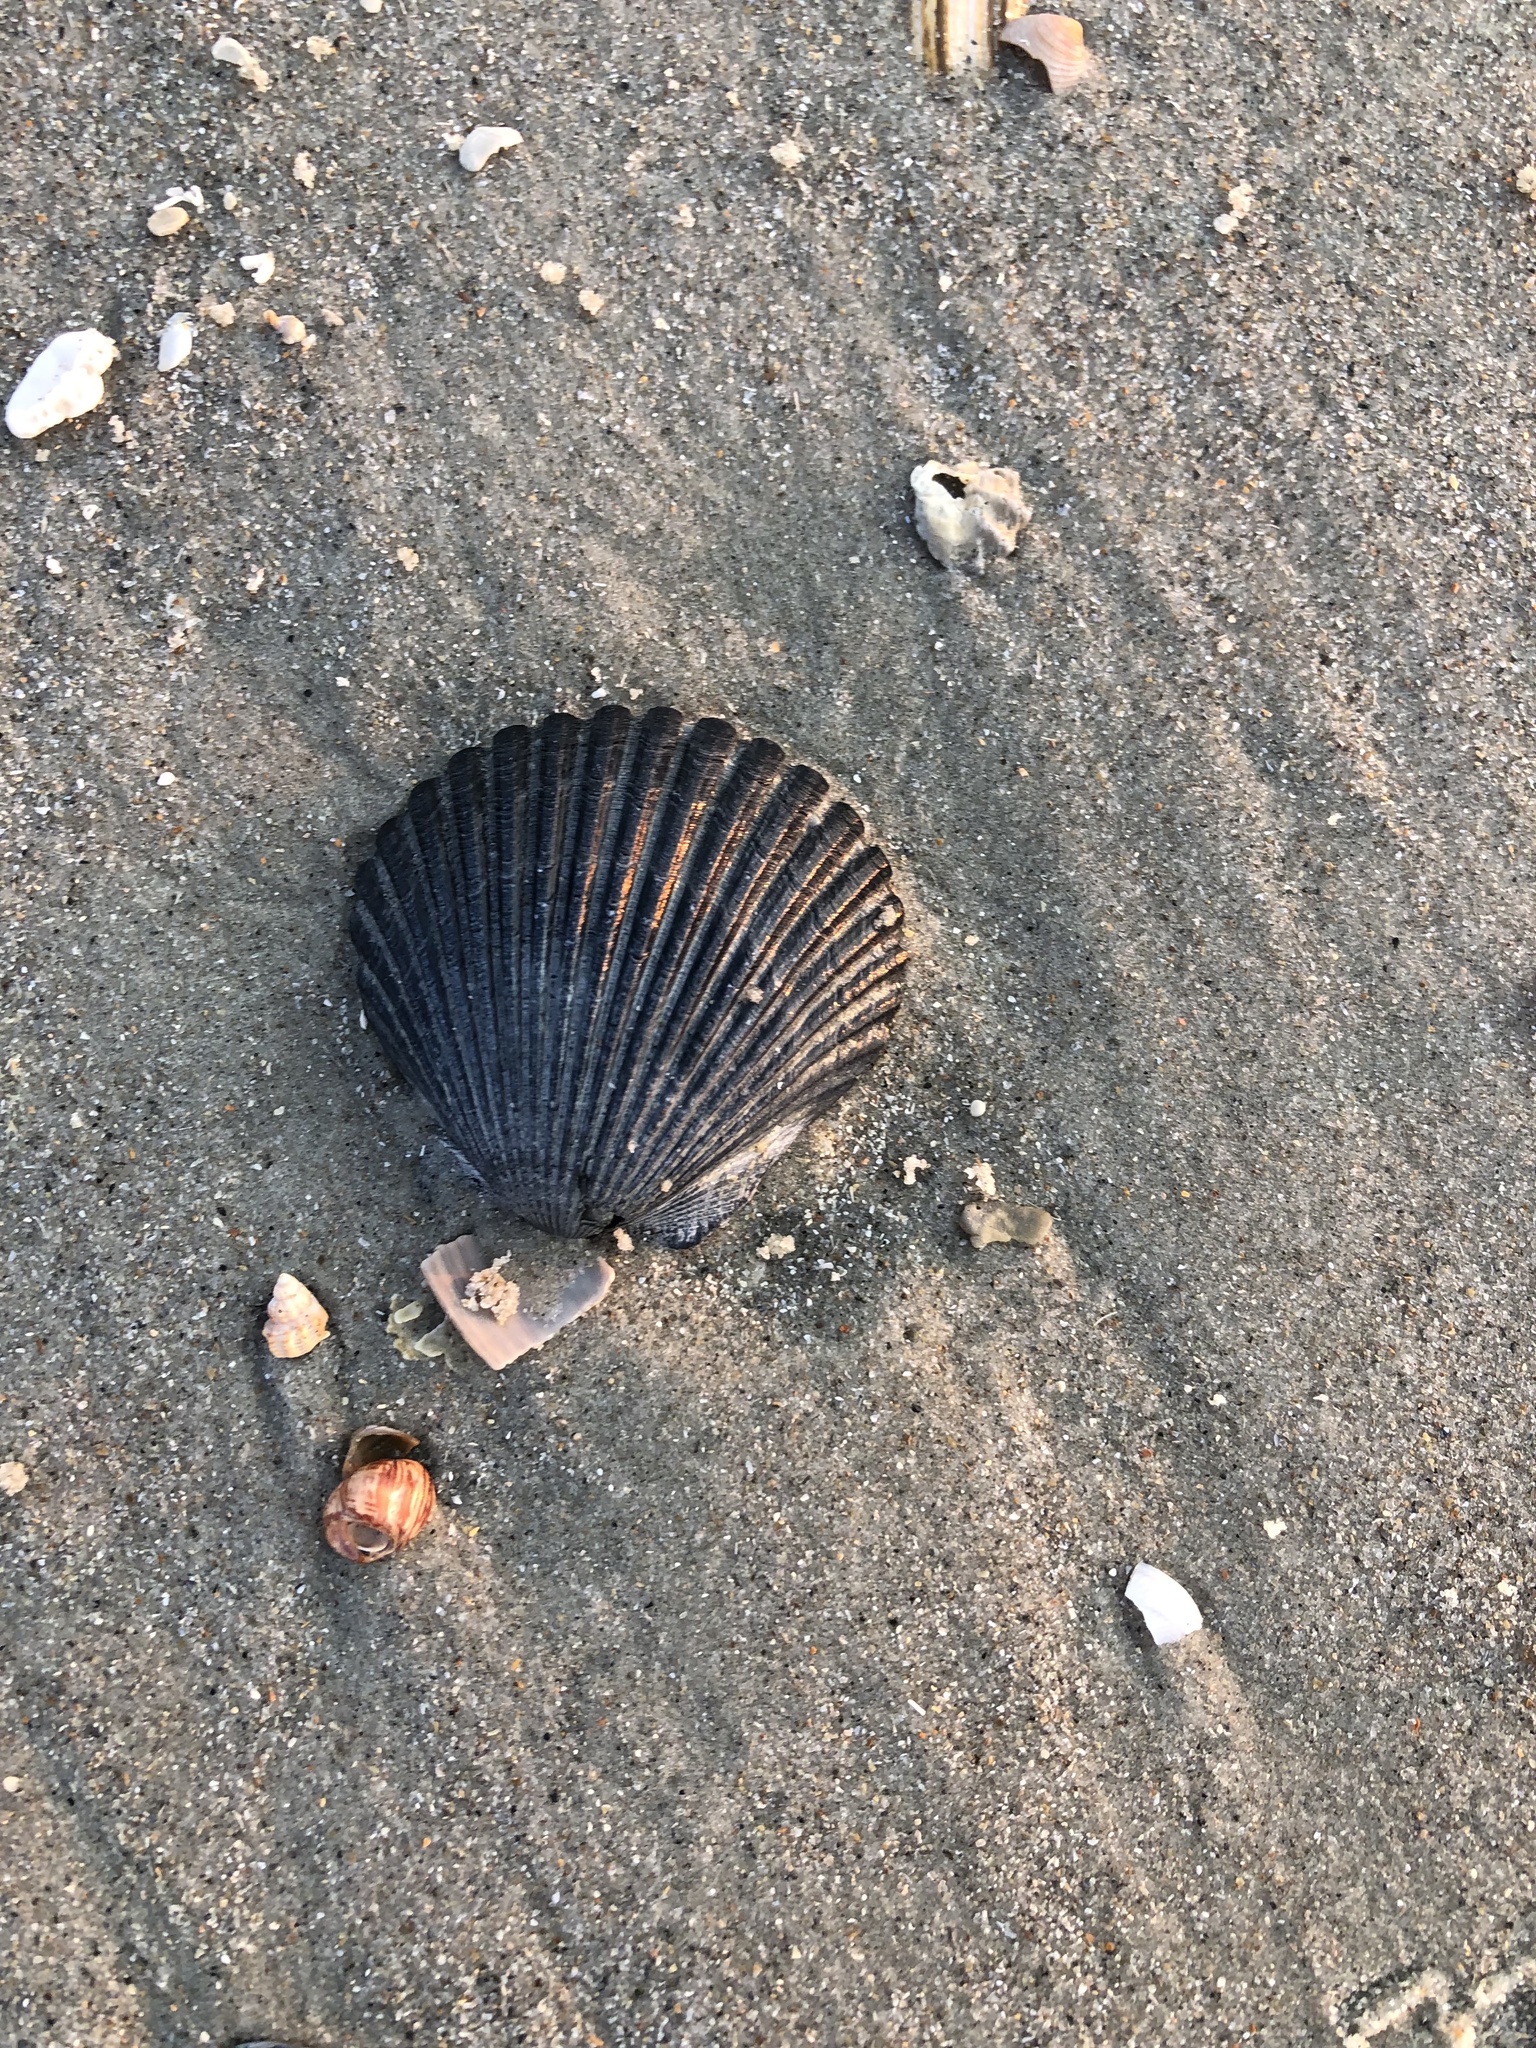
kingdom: Animalia
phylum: Mollusca
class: Bivalvia
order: Pectinida
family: Pectinidae
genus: Argopecten
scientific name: Argopecten irradians
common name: Atlantic bay scallop
